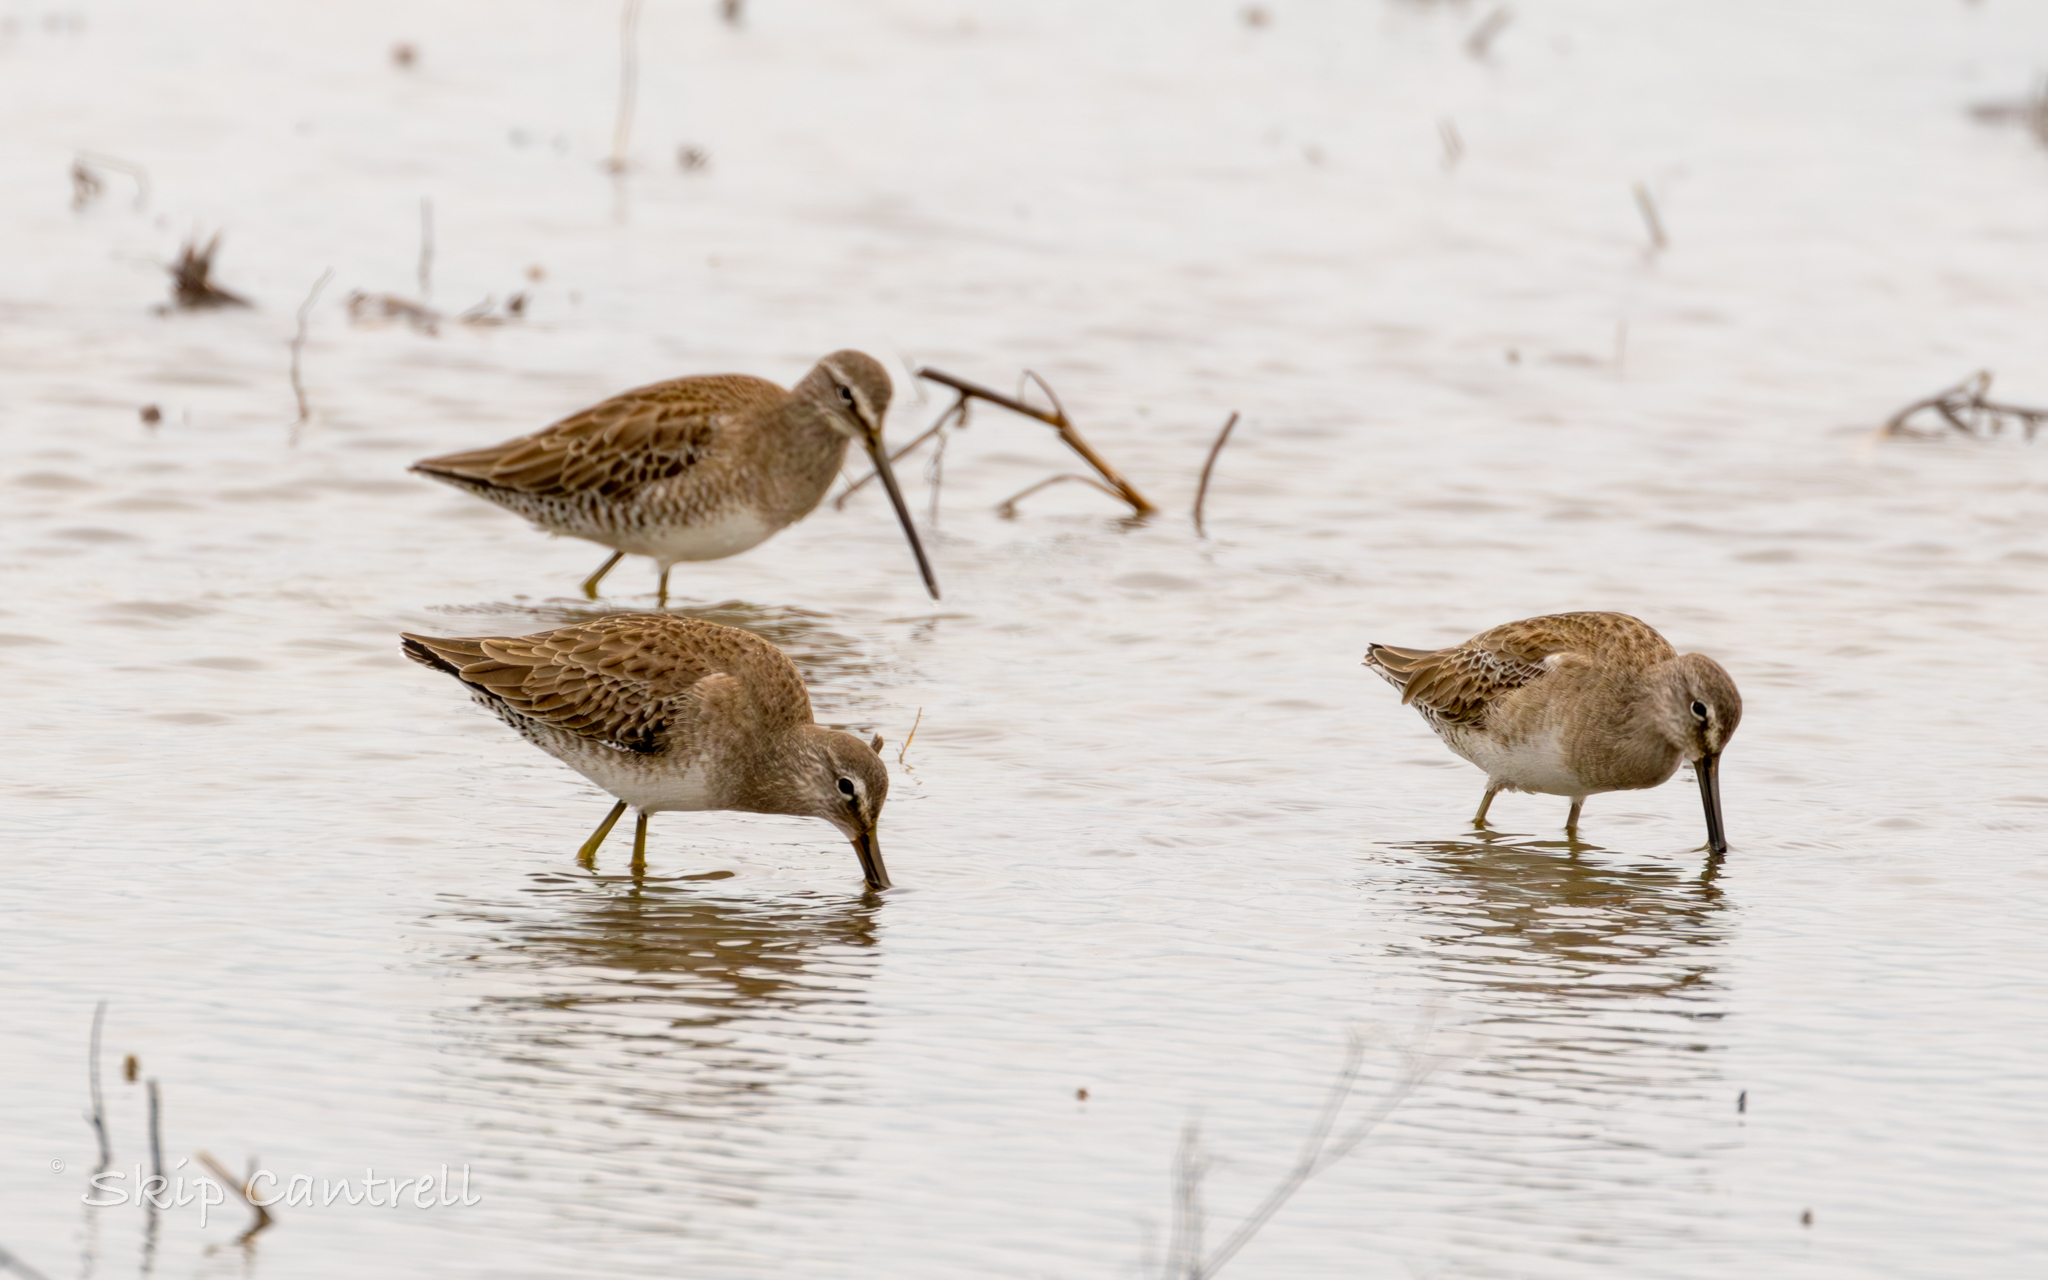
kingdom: Animalia
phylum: Chordata
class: Aves
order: Charadriiformes
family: Scolopacidae
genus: Limnodromus
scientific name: Limnodromus scolopaceus
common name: Long-billed dowitcher
